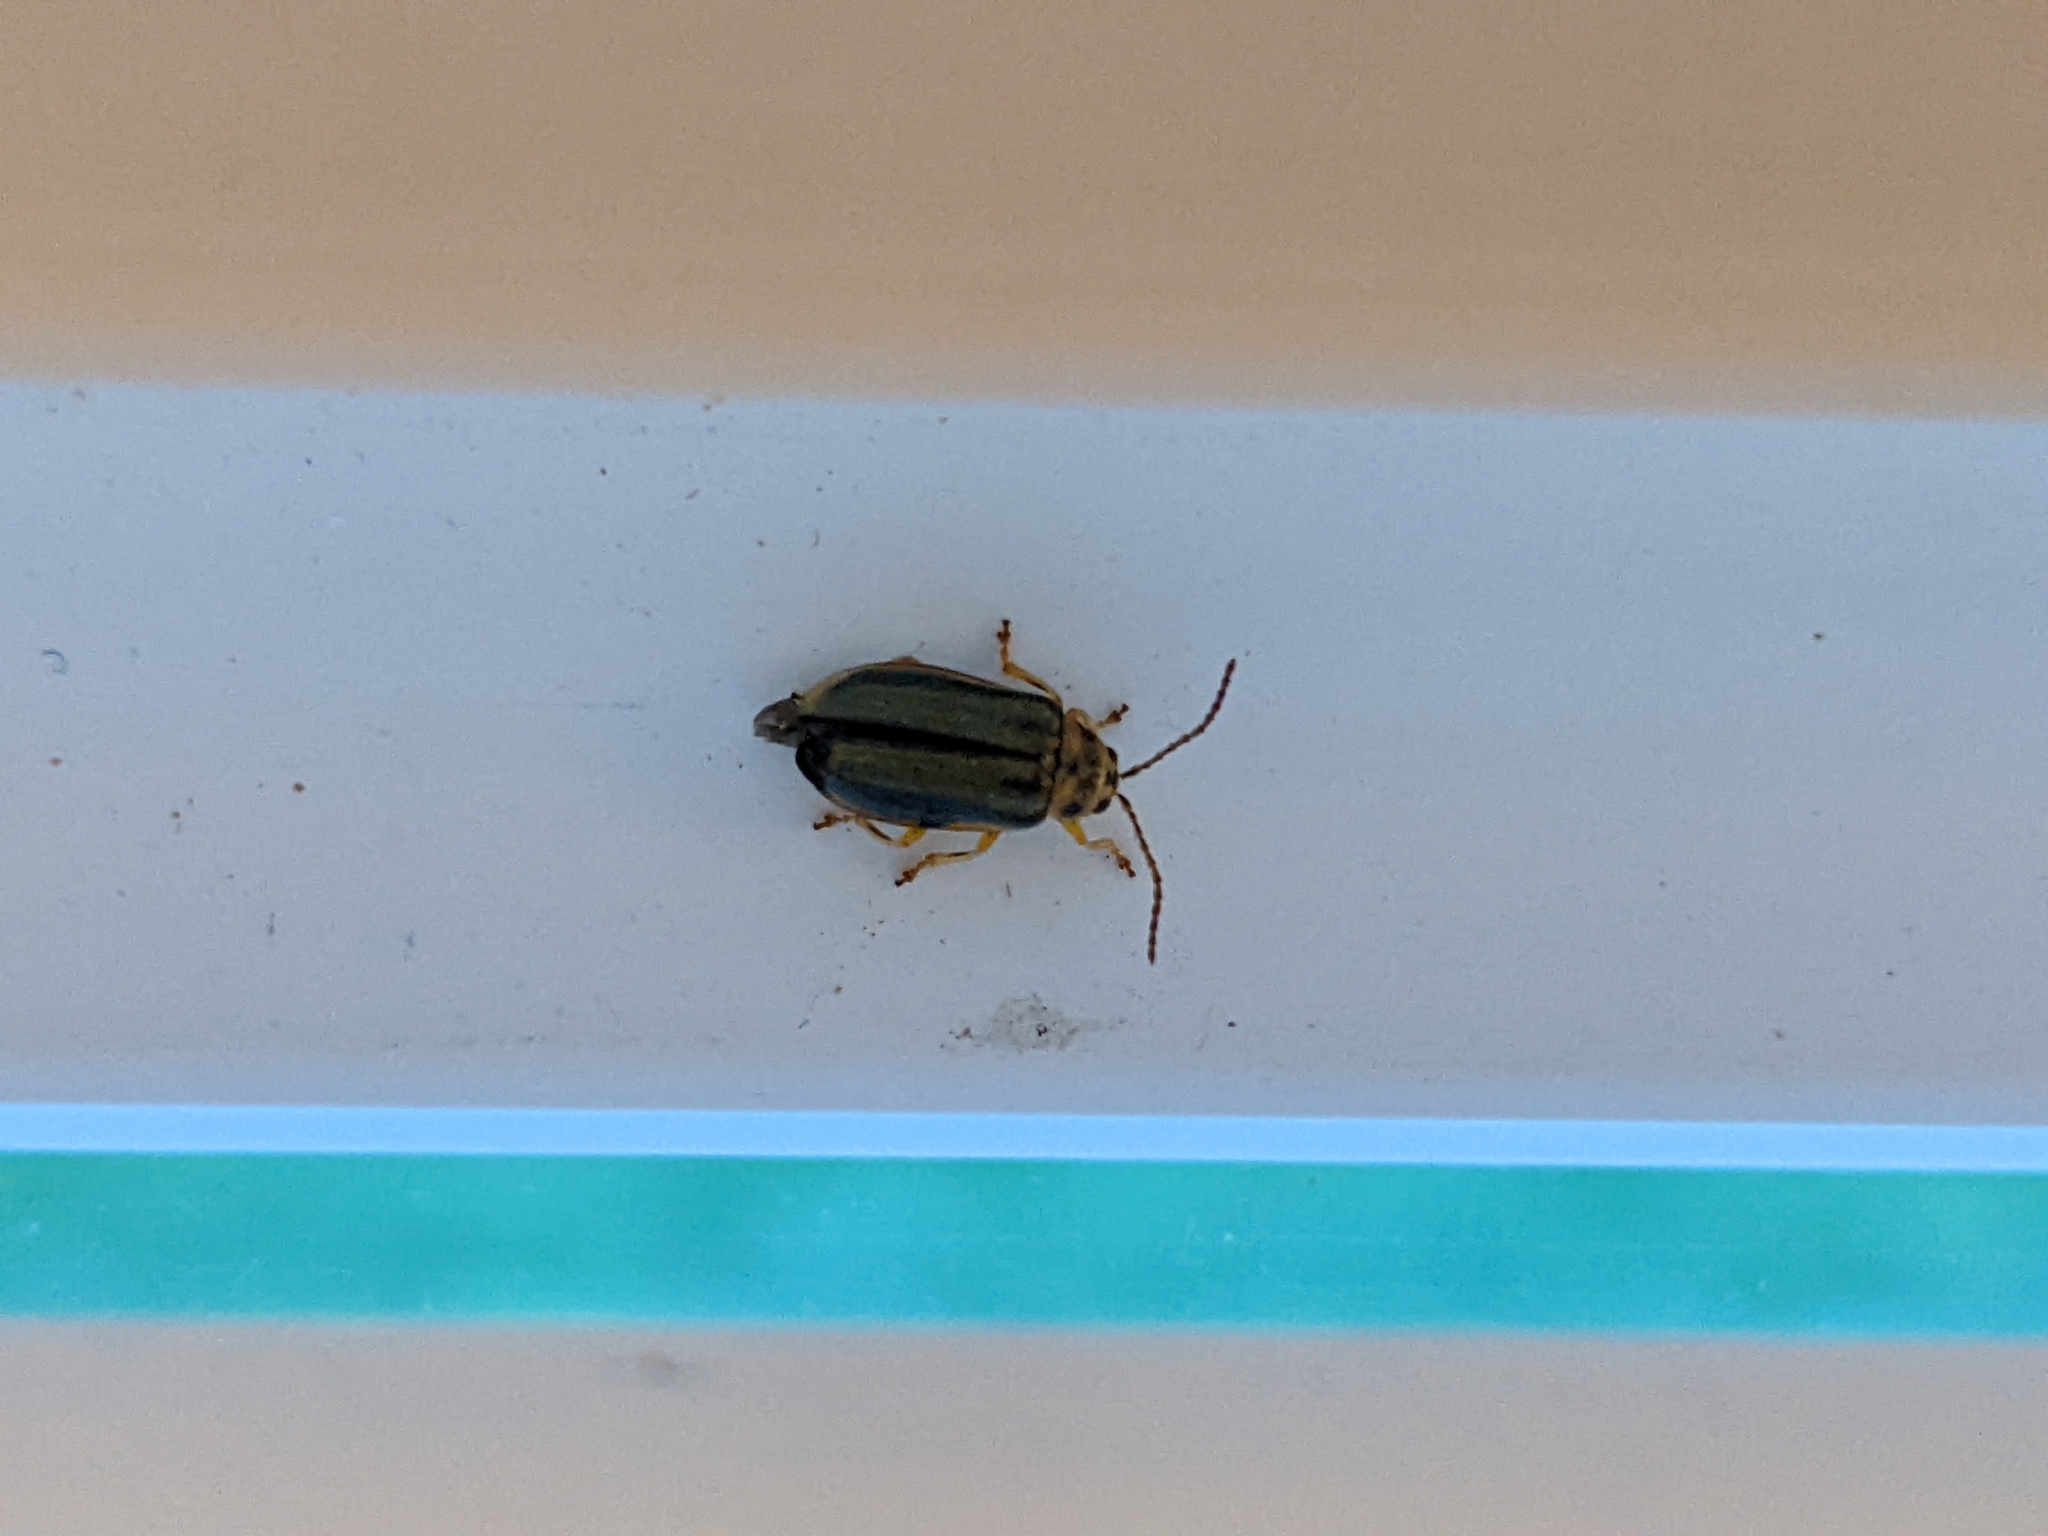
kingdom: Animalia
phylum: Arthropoda
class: Insecta
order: Coleoptera
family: Chrysomelidae
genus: Xanthogaleruca
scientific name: Xanthogaleruca luteola
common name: Elm leaf beetle
